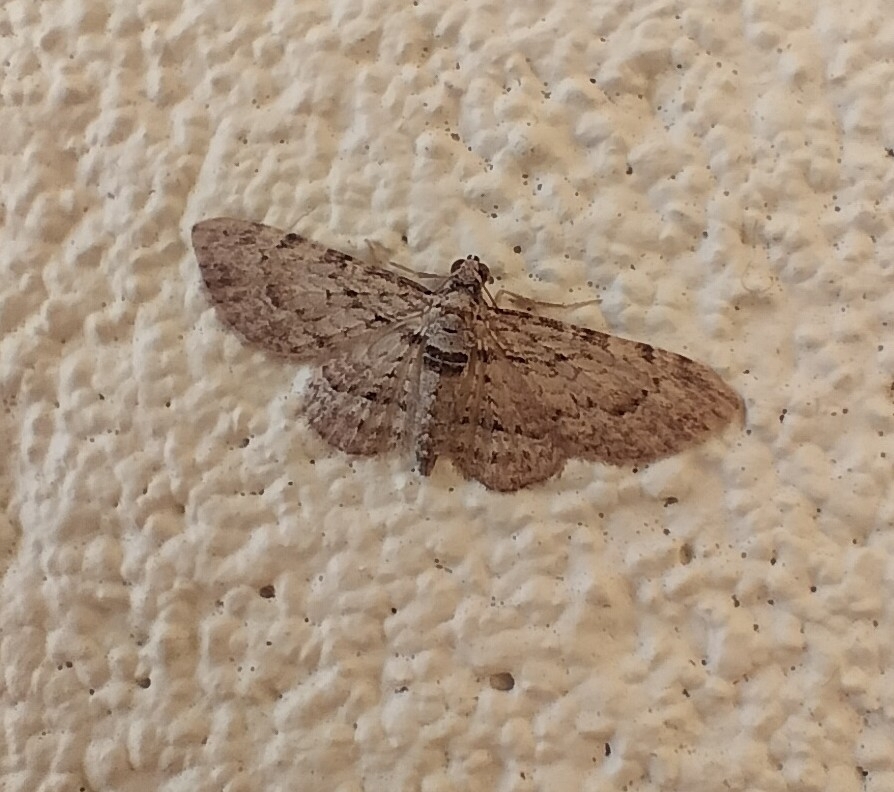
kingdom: Animalia
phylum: Arthropoda
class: Insecta
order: Lepidoptera
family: Geometridae
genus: Chloroclystis
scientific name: Chloroclystis insigillata
